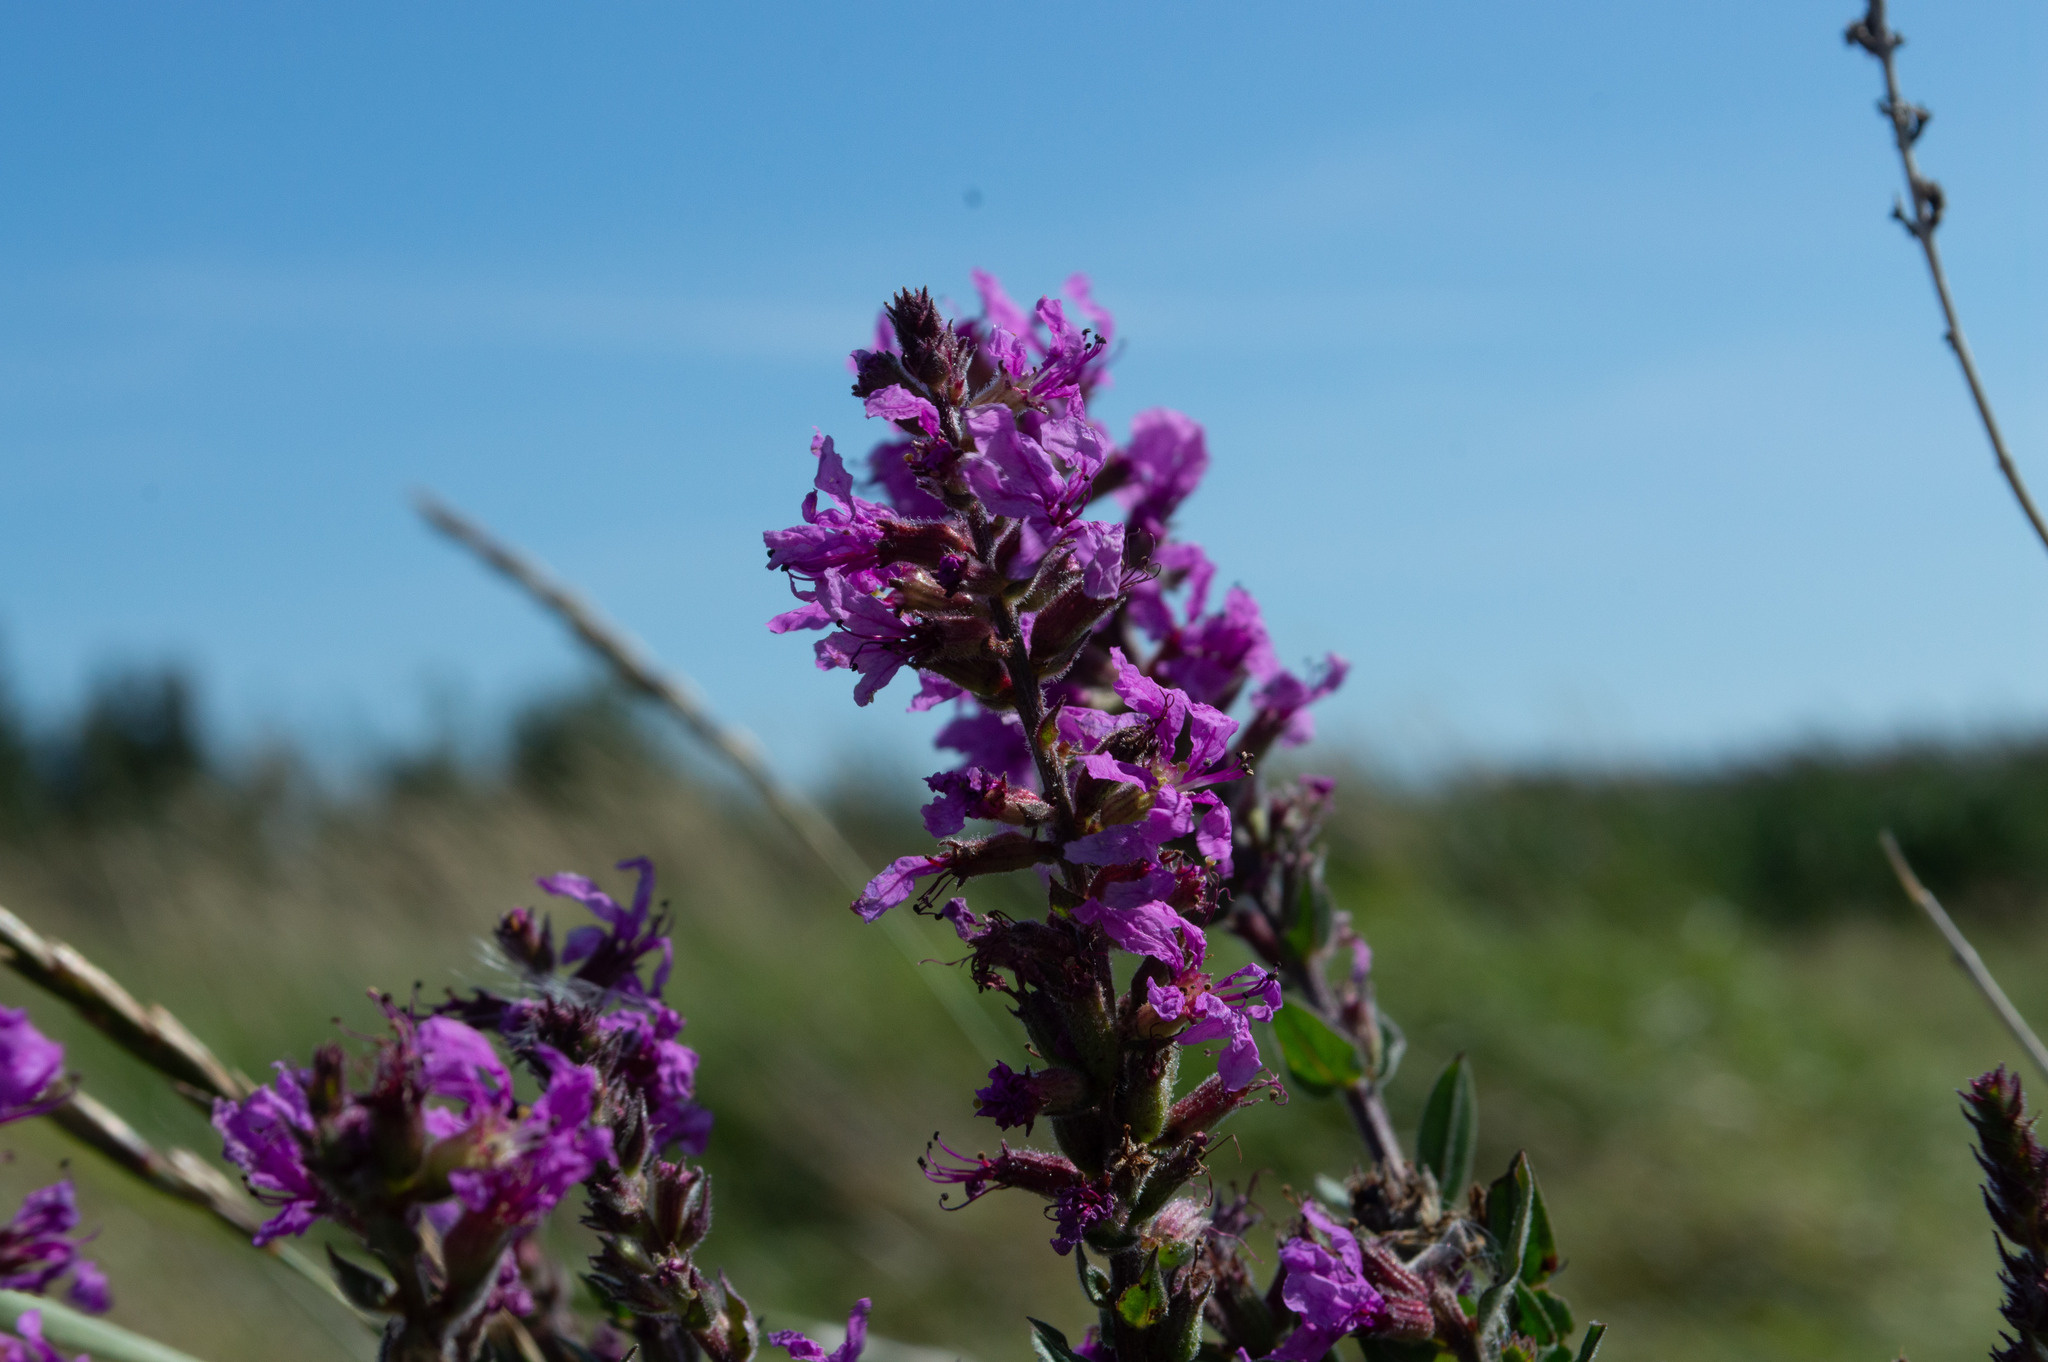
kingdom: Plantae
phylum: Tracheophyta
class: Magnoliopsida
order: Myrtales
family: Lythraceae
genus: Lythrum
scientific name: Lythrum salicaria
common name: Purple loosestrife
